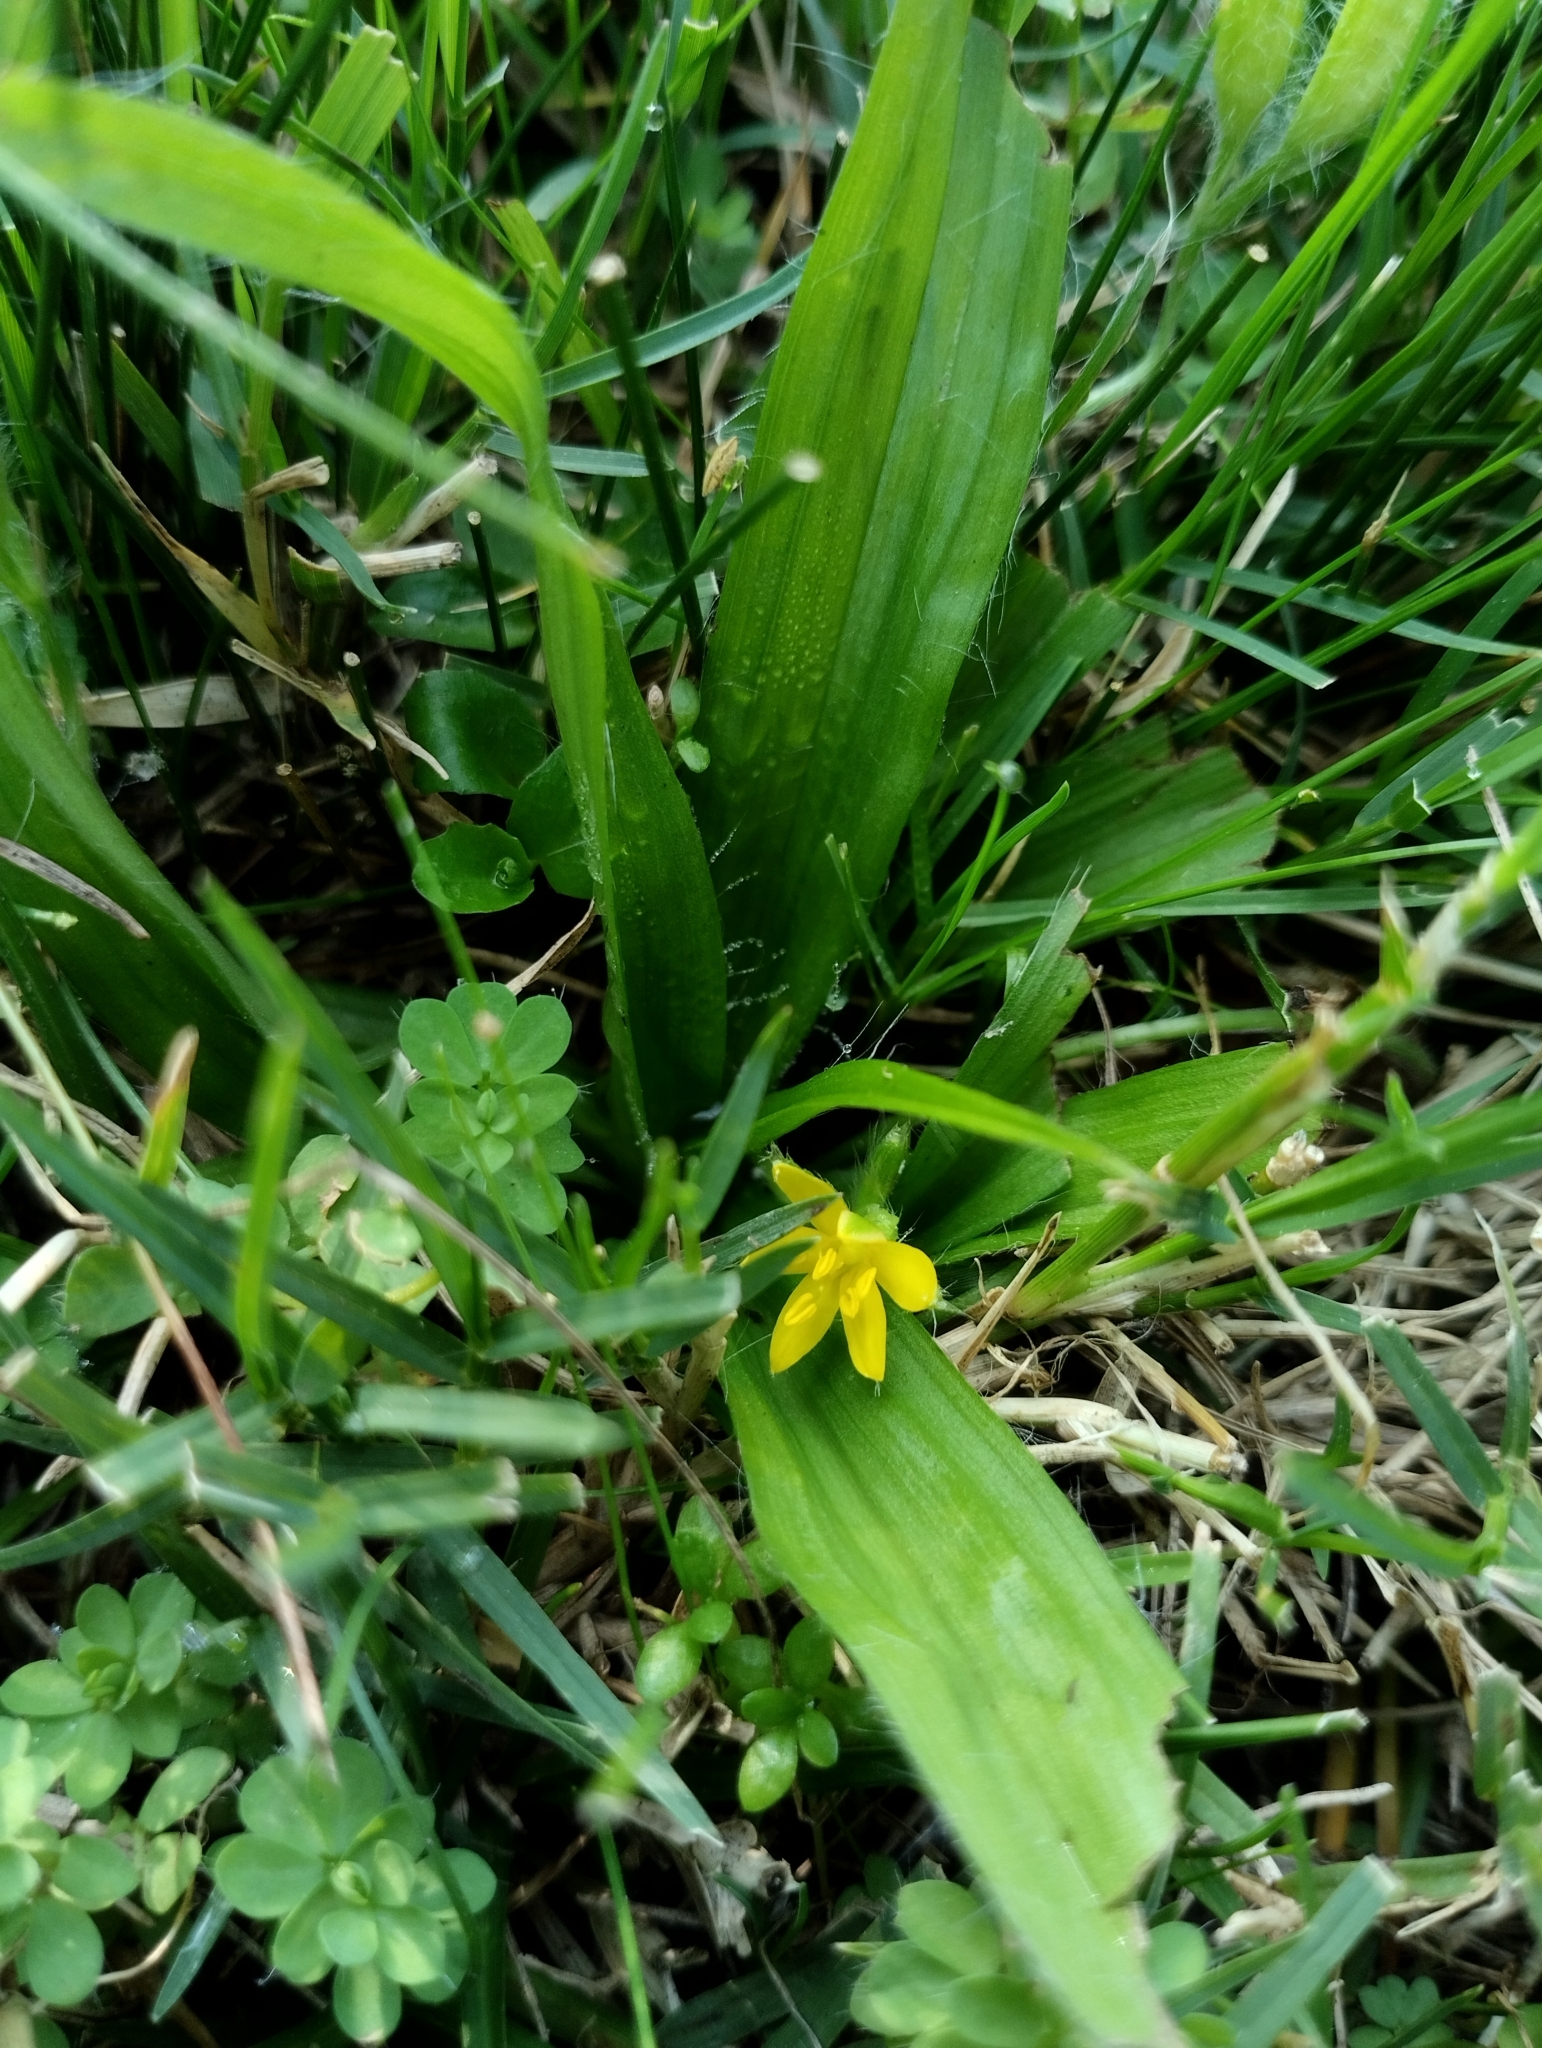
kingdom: Plantae
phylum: Tracheophyta
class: Liliopsida
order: Asparagales
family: Hypoxidaceae
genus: Hypoxis
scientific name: Hypoxis decumbens
